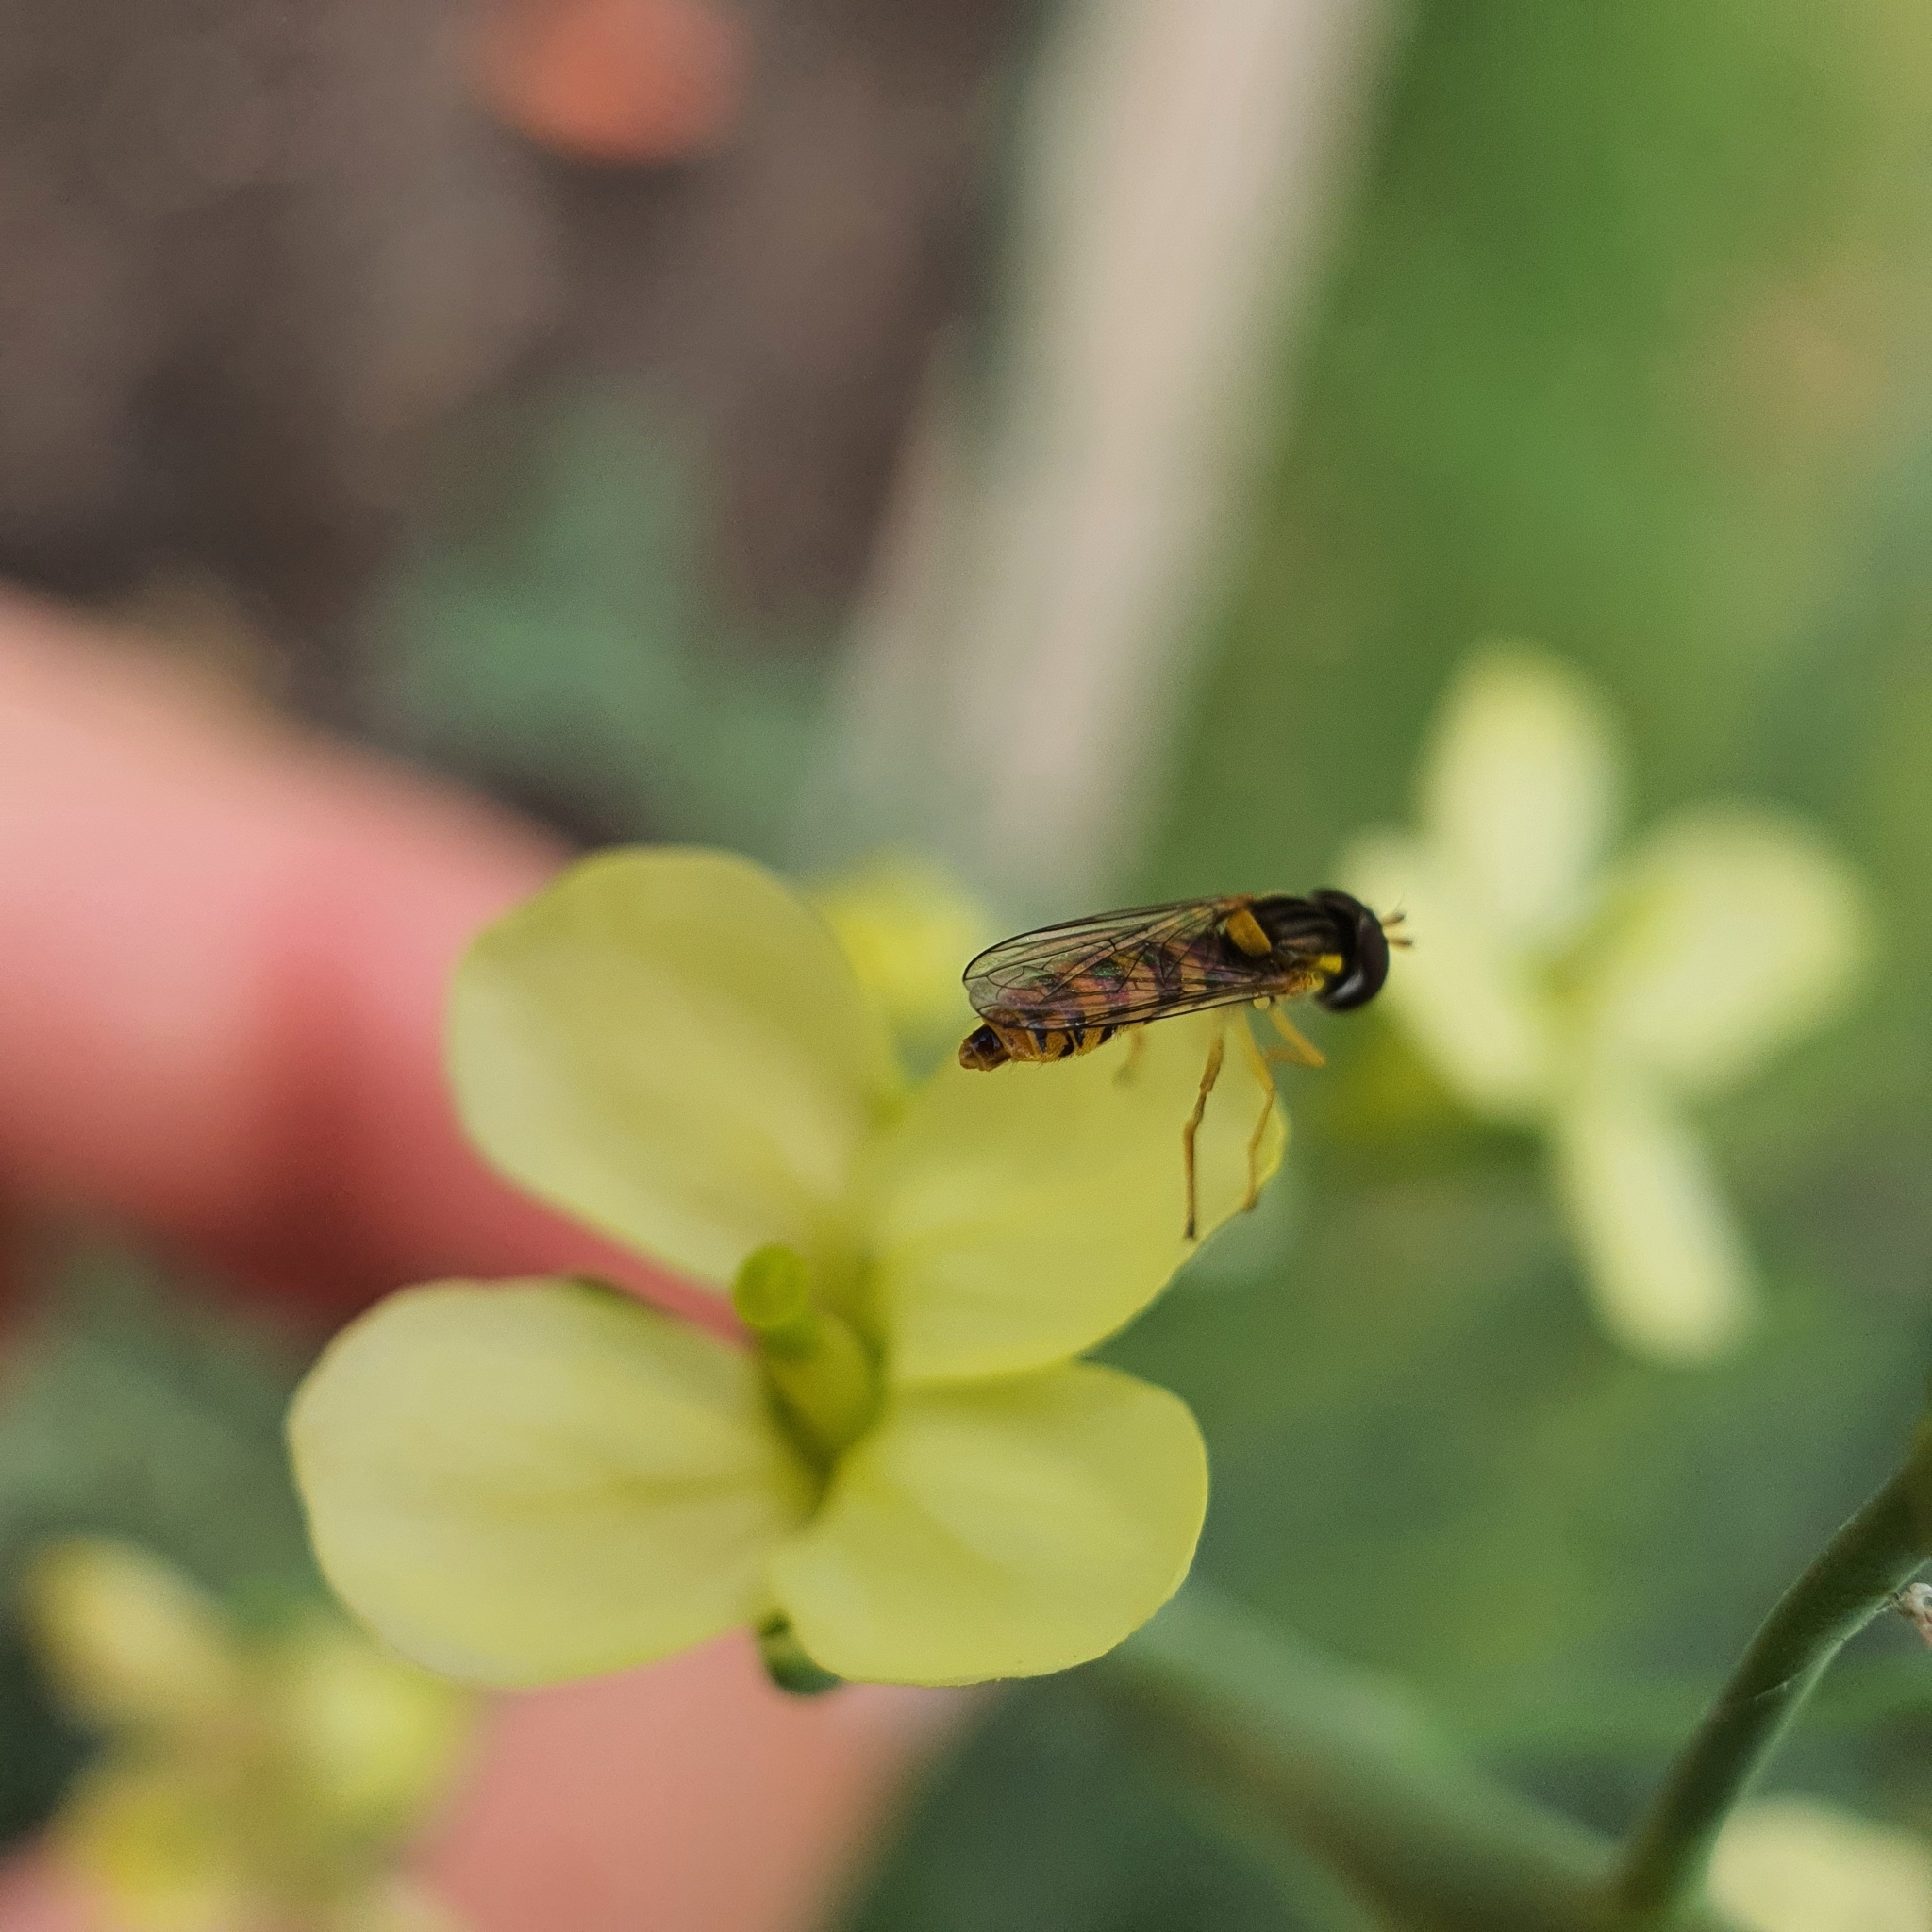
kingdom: Animalia
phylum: Arthropoda
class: Insecta
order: Diptera
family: Syrphidae
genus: Sphaerophoria
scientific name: Sphaerophoria macrogaster
